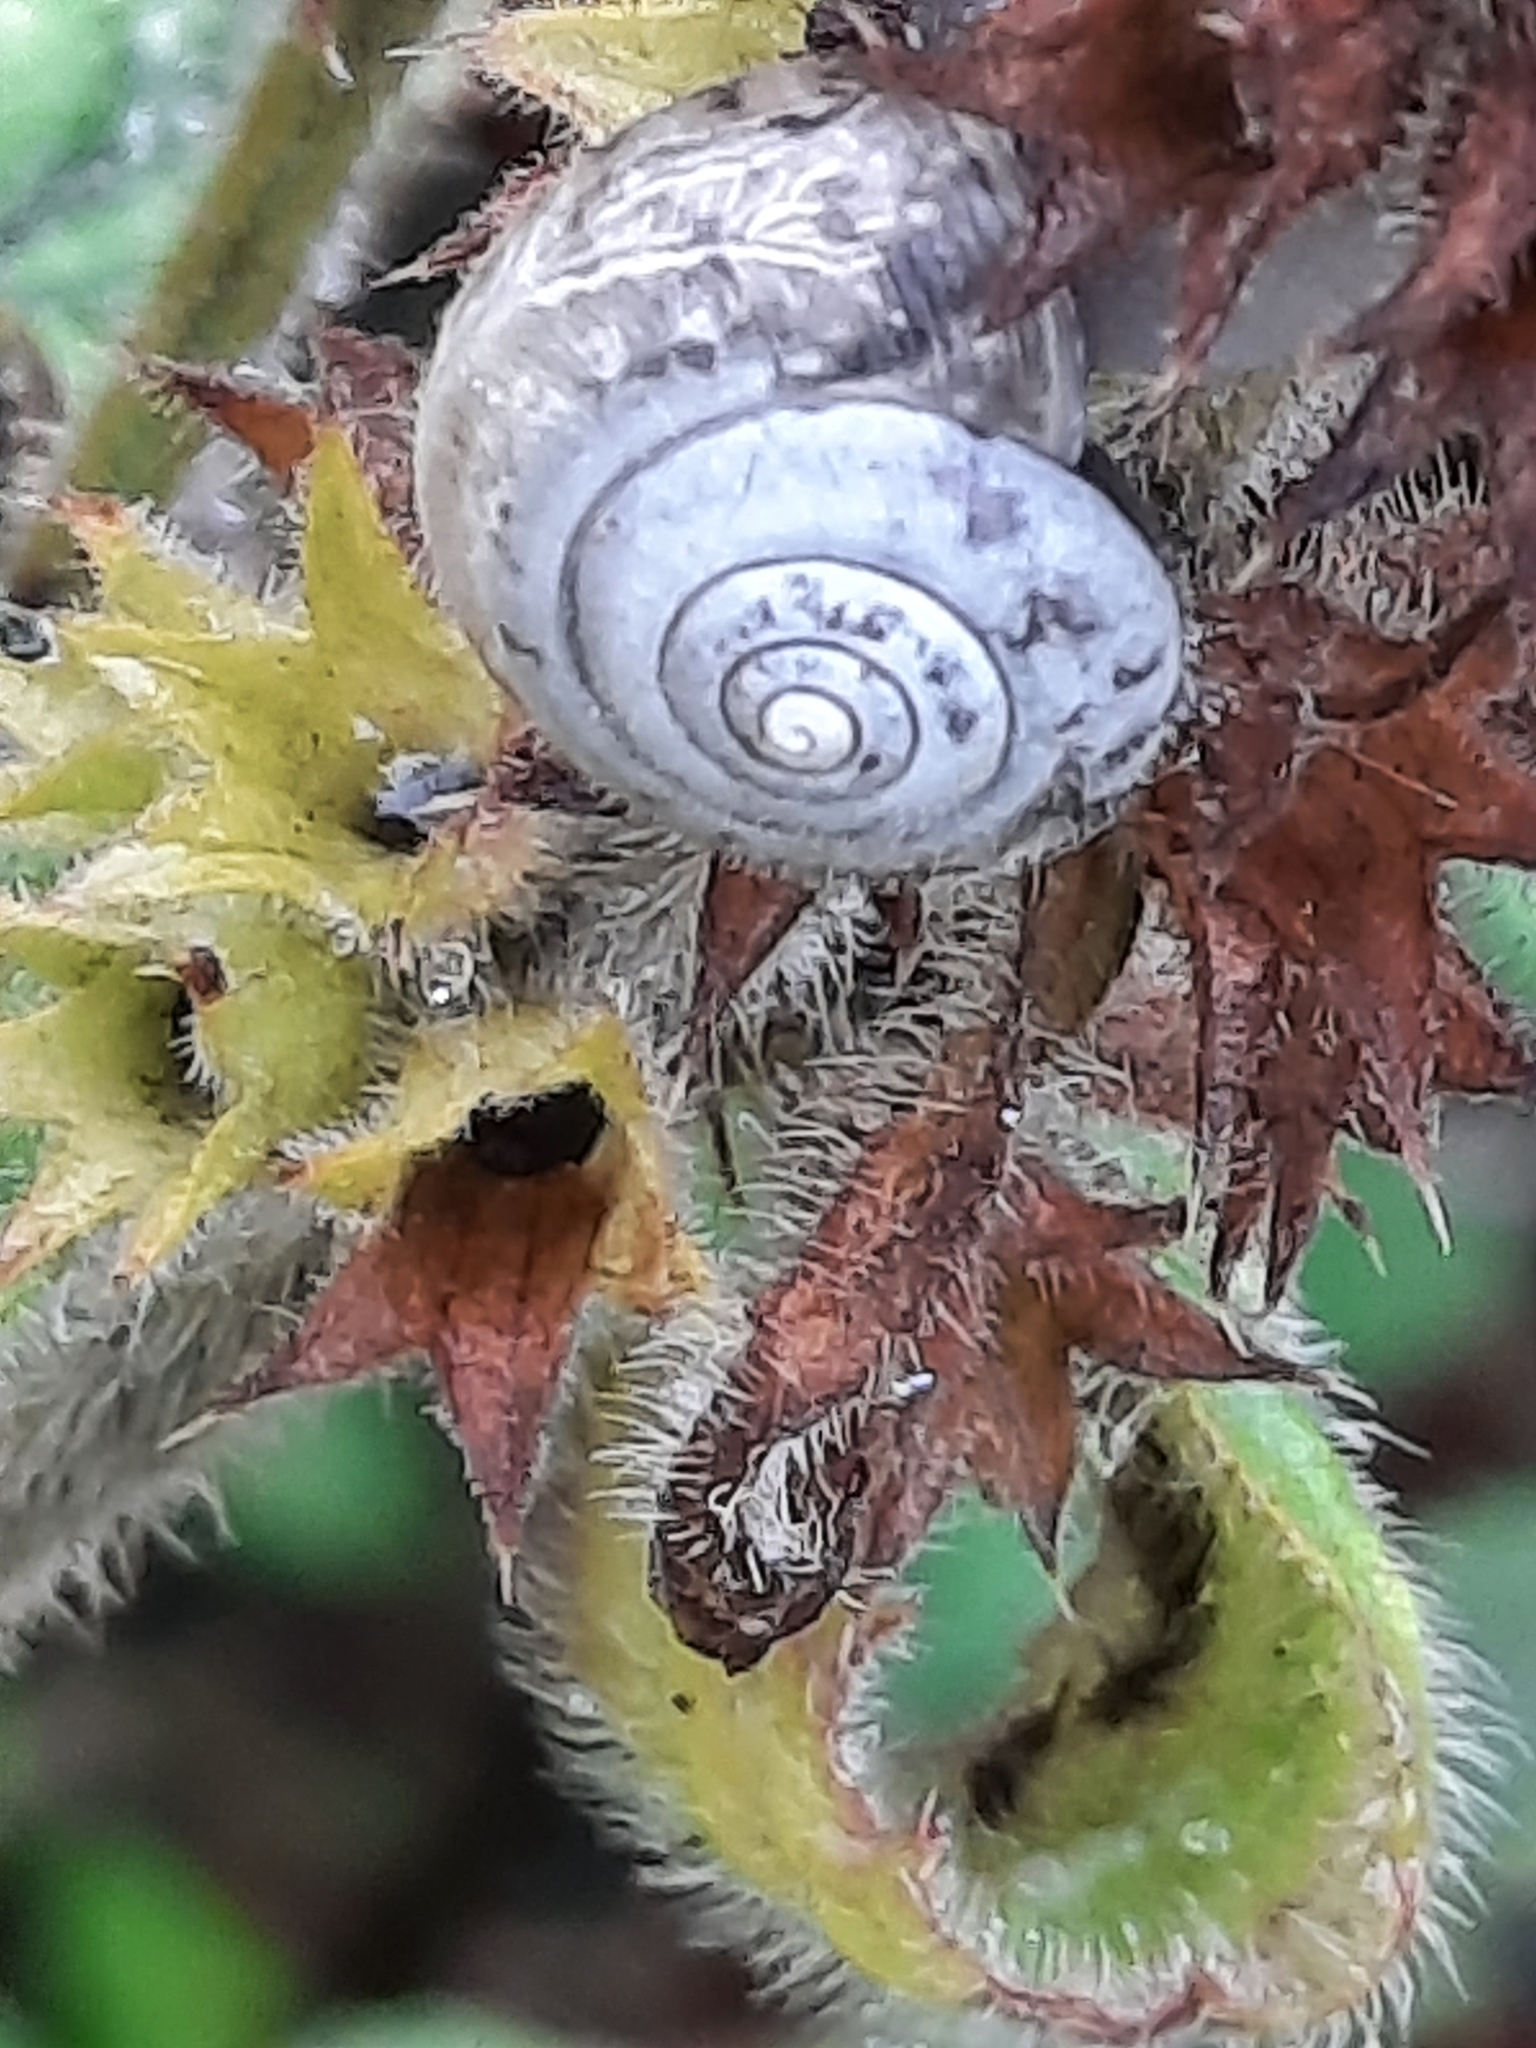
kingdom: Animalia
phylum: Mollusca
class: Gastropoda
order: Stylommatophora
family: Hygromiidae
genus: Monacha
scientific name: Monacha cantiana
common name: Kentish snail
